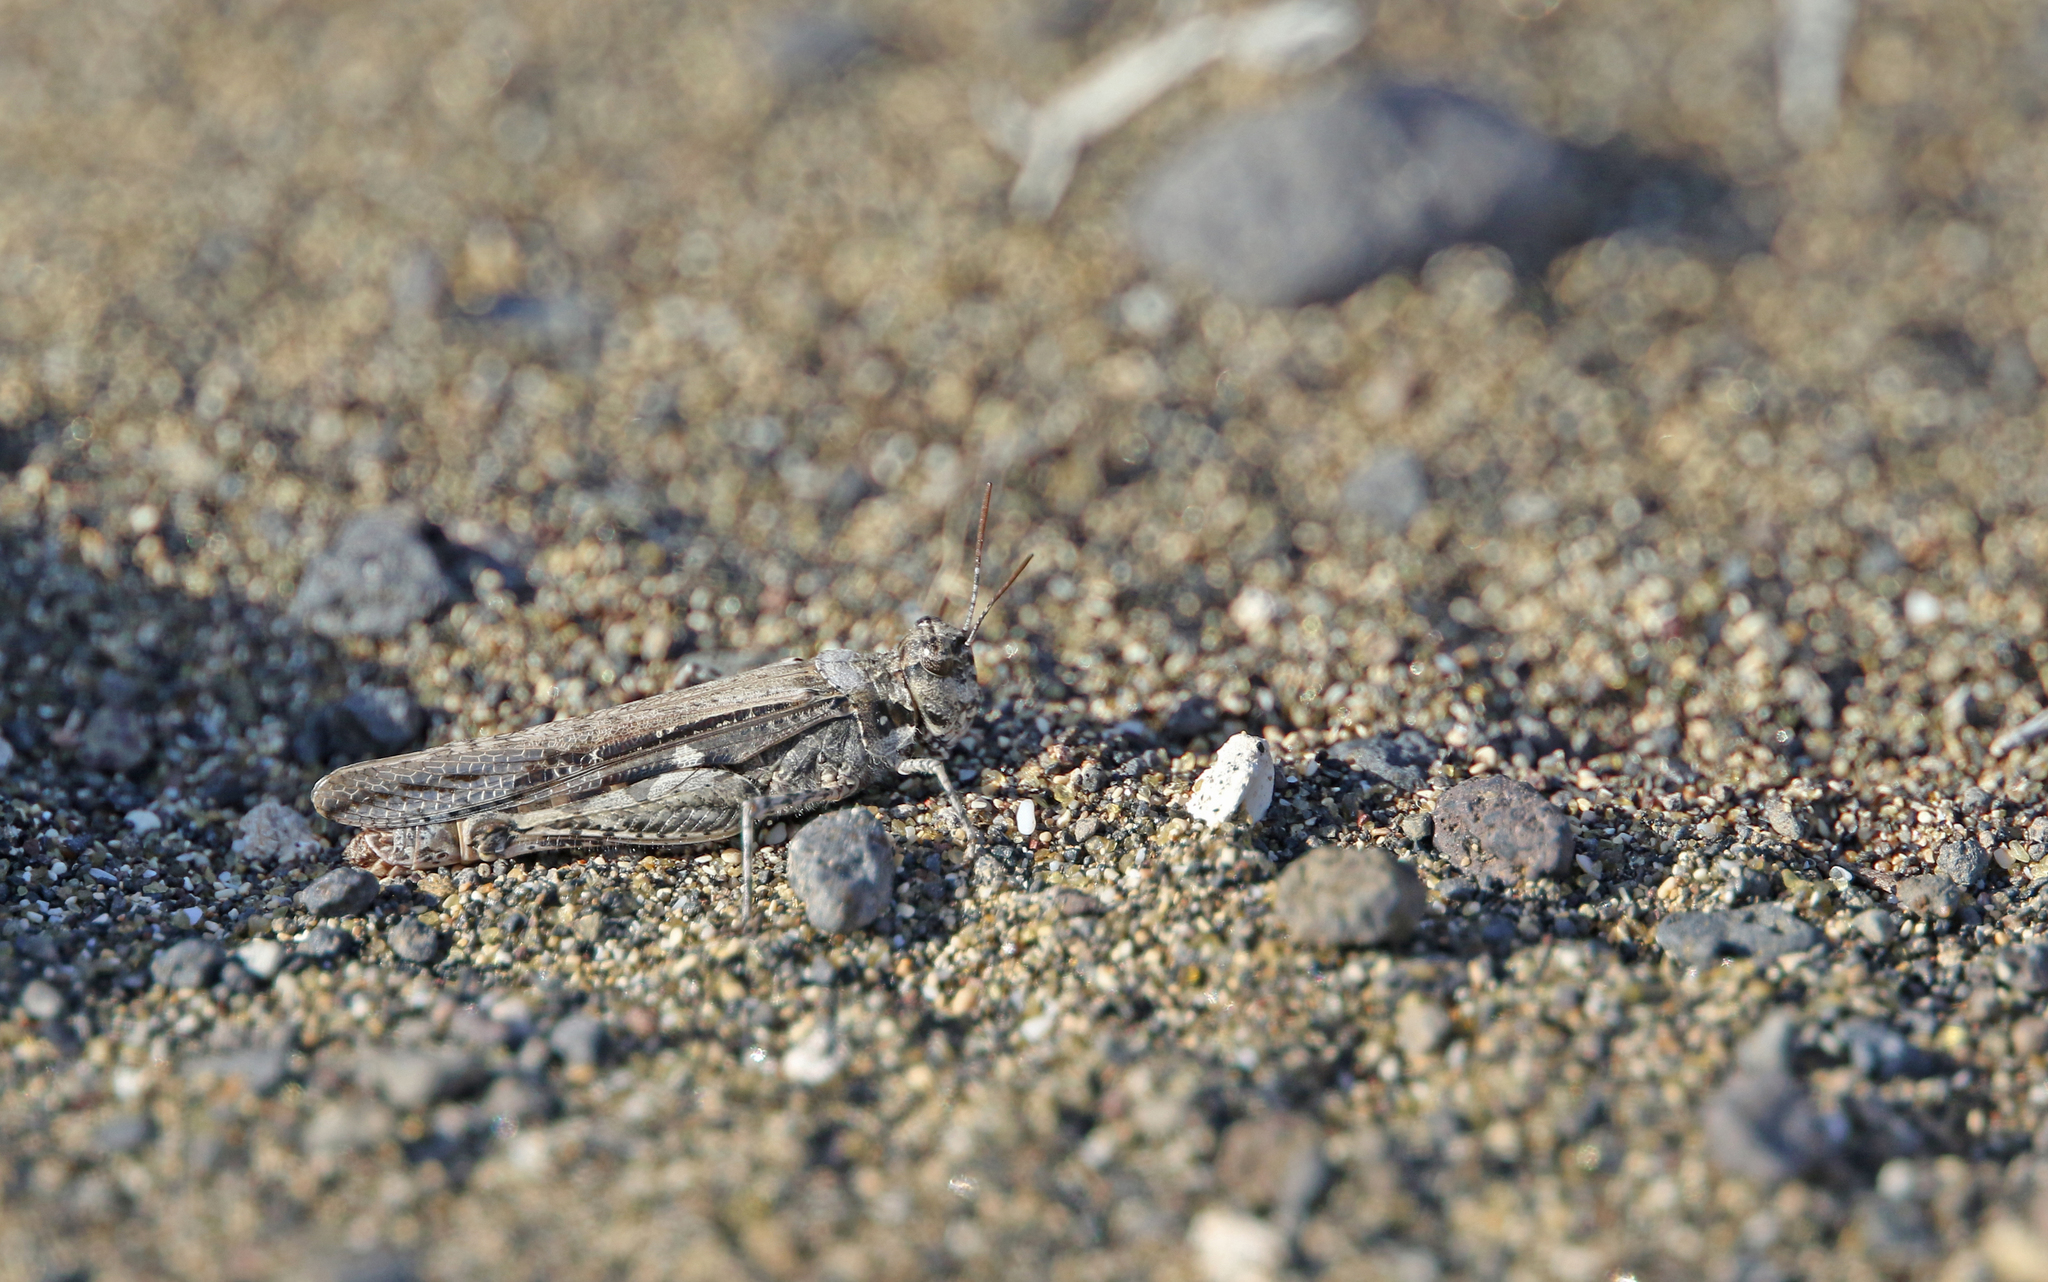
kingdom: Animalia
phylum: Arthropoda
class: Insecta
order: Orthoptera
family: Acrididae
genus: Acrotylus
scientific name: Acrotylus longipes
